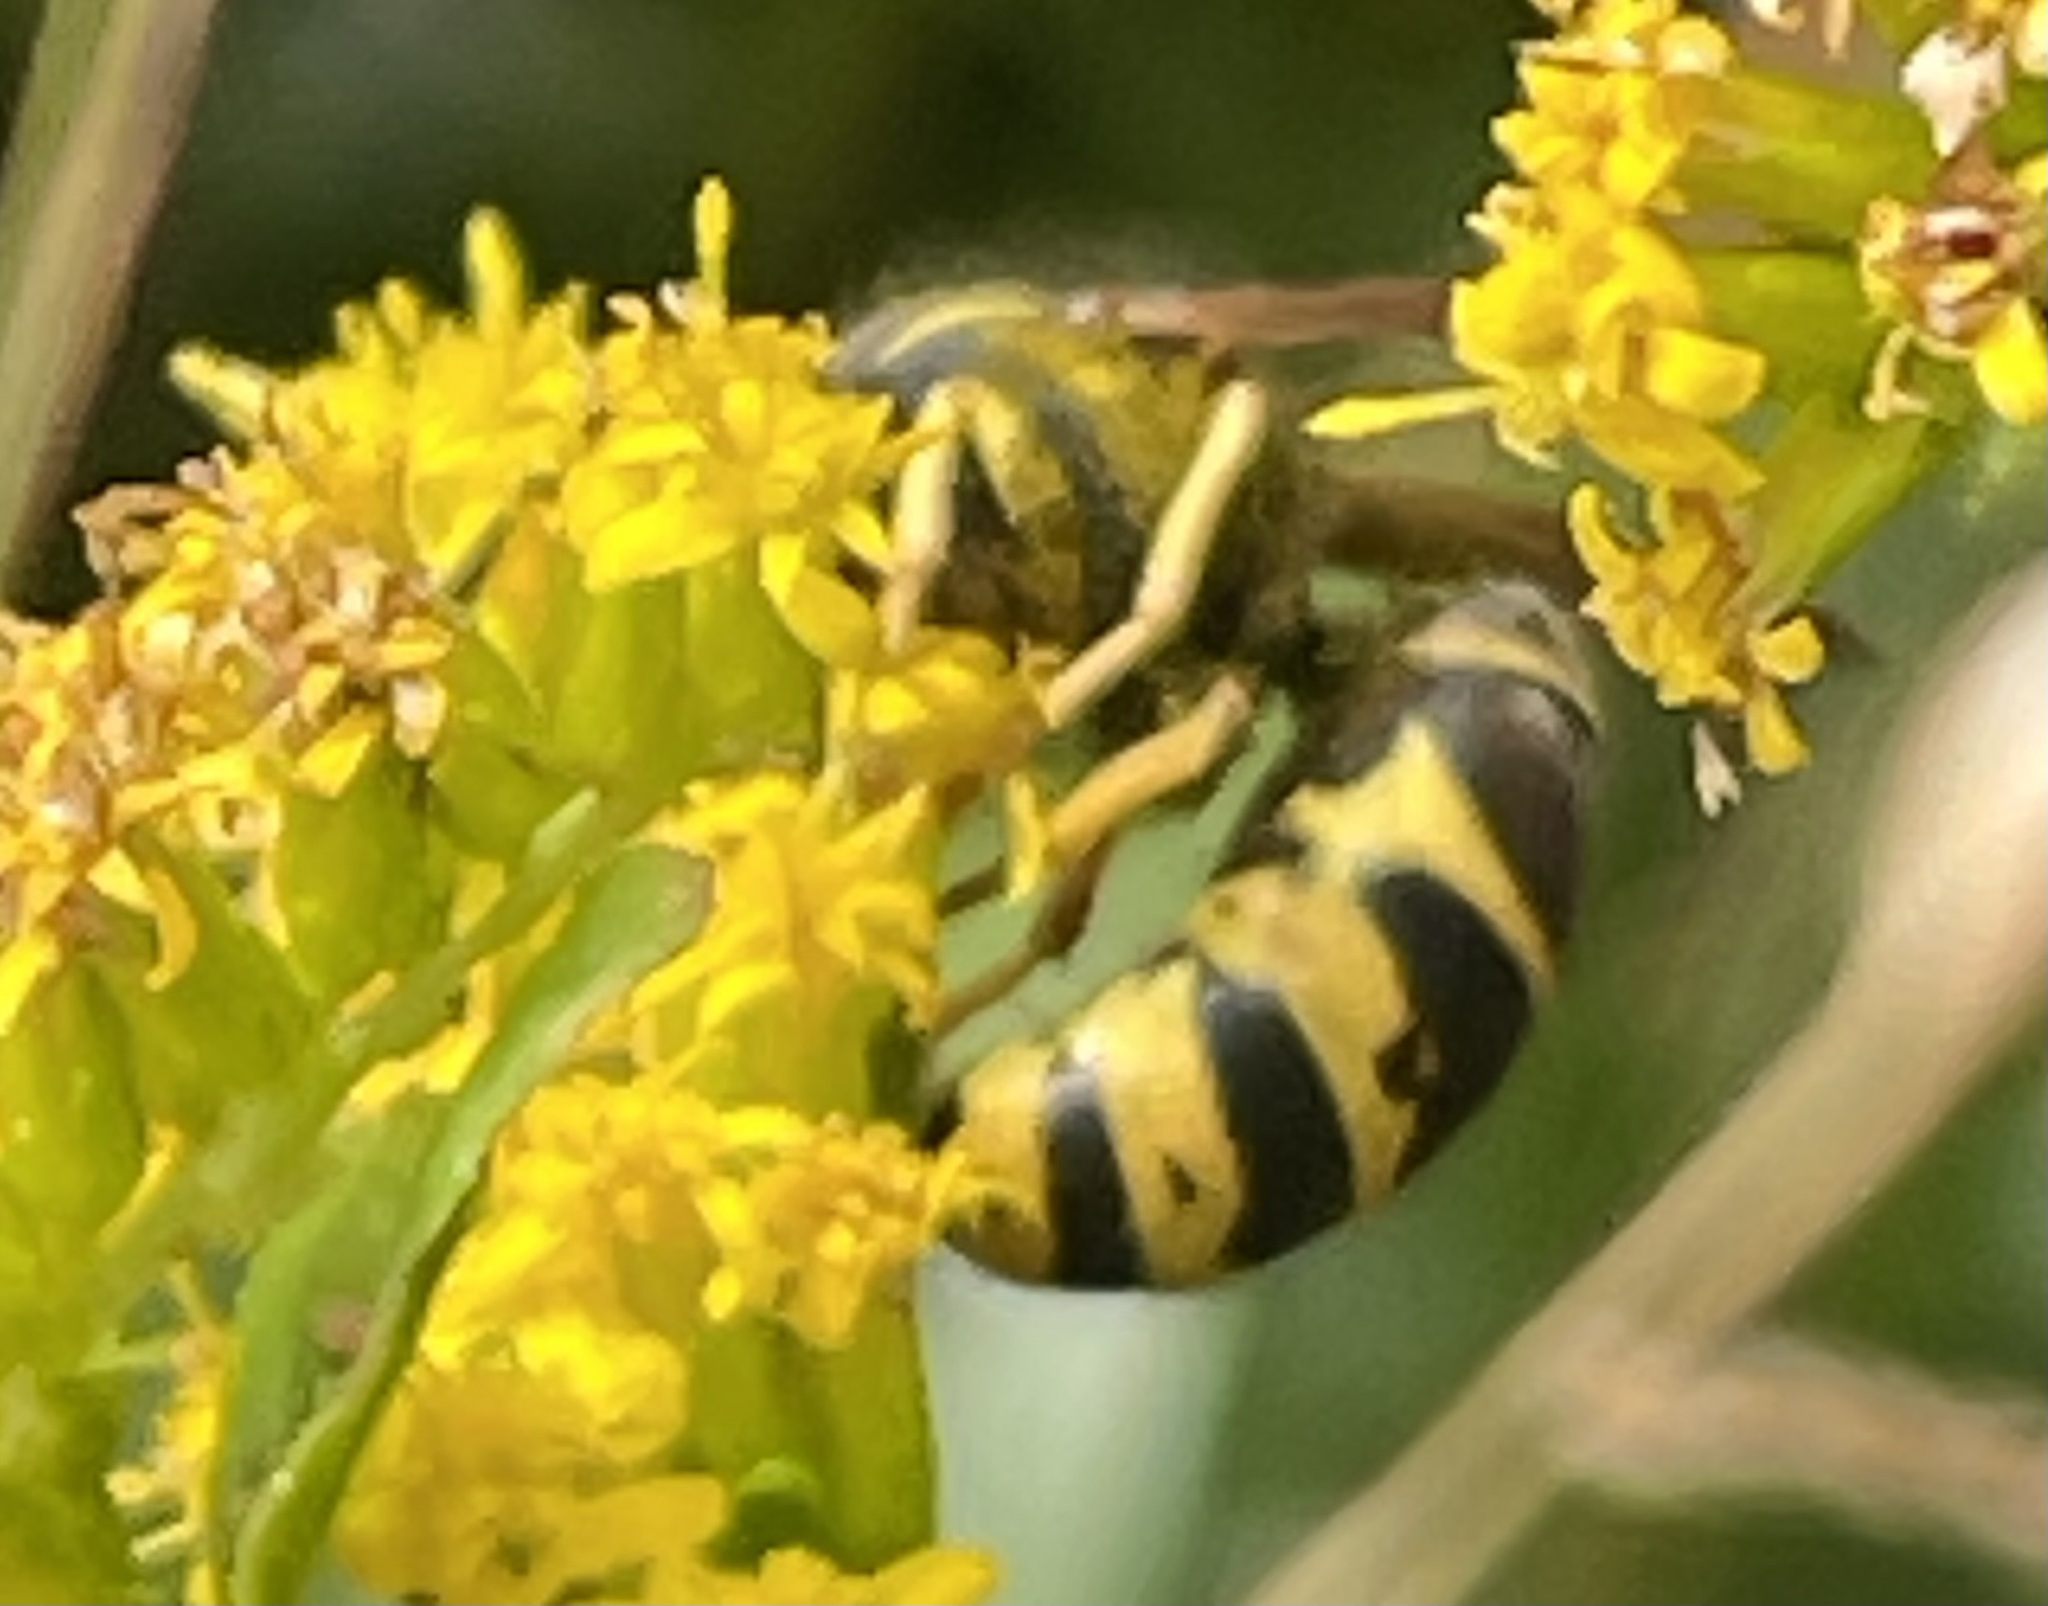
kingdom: Animalia
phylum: Arthropoda
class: Insecta
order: Hymenoptera
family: Vespidae
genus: Vespula
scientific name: Vespula vidua
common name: Widow yellowjacket
